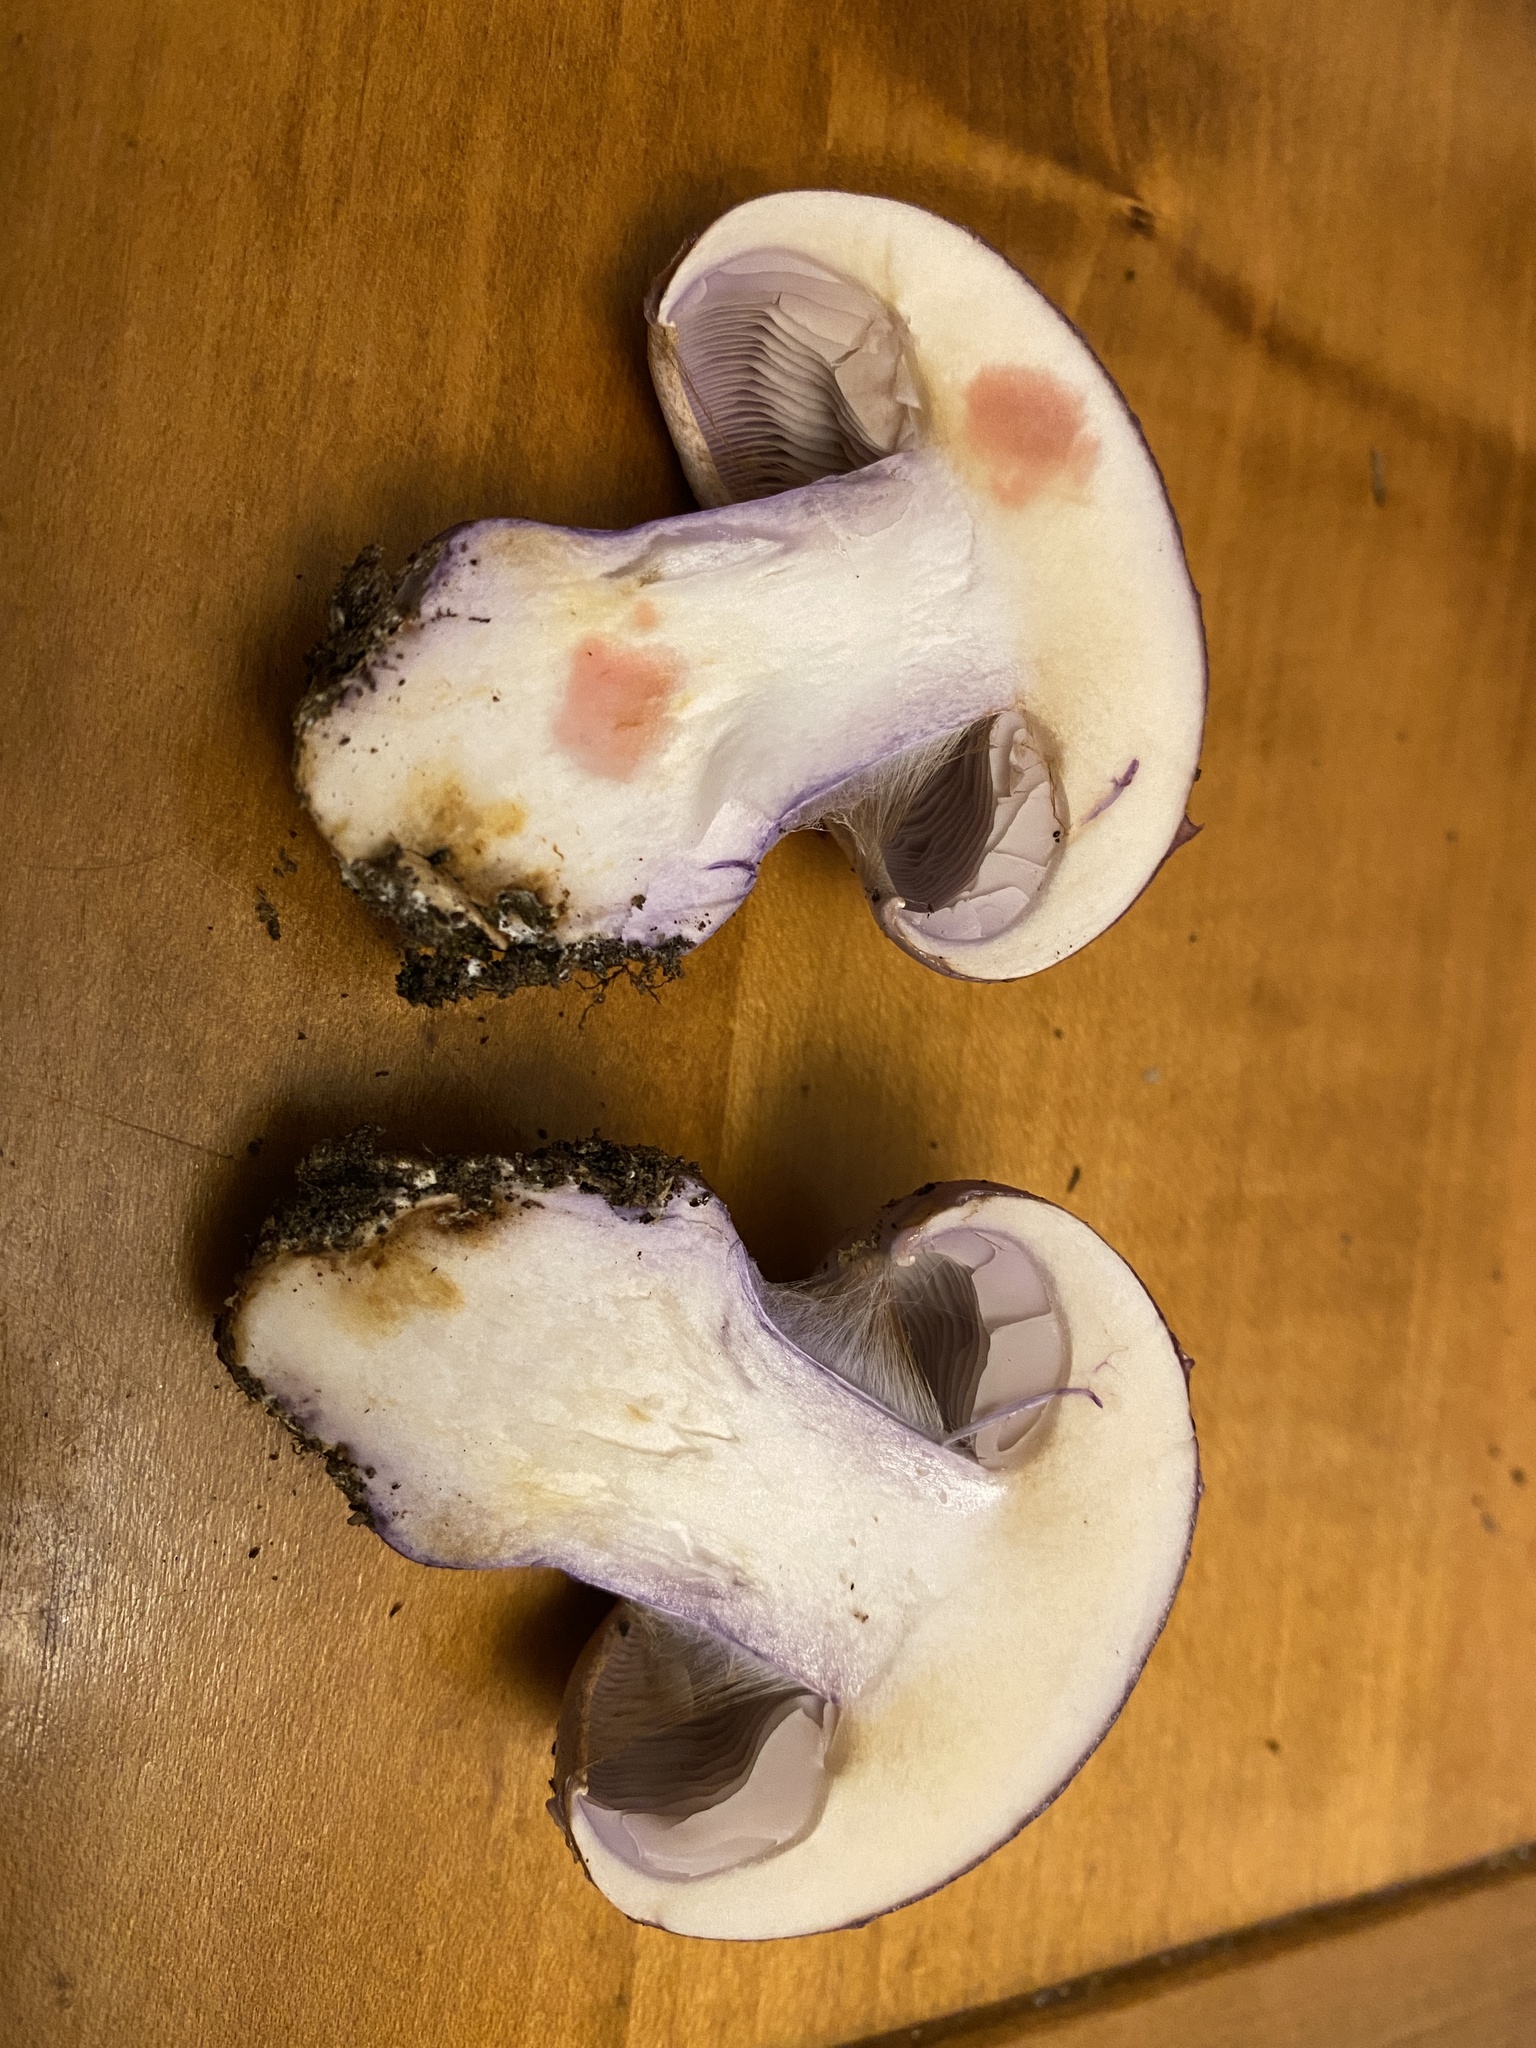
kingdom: Fungi
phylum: Basidiomycota
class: Agaricomycetes
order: Agaricales
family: Cortinariaceae
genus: Calonarius
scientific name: Calonarius dibaphus
